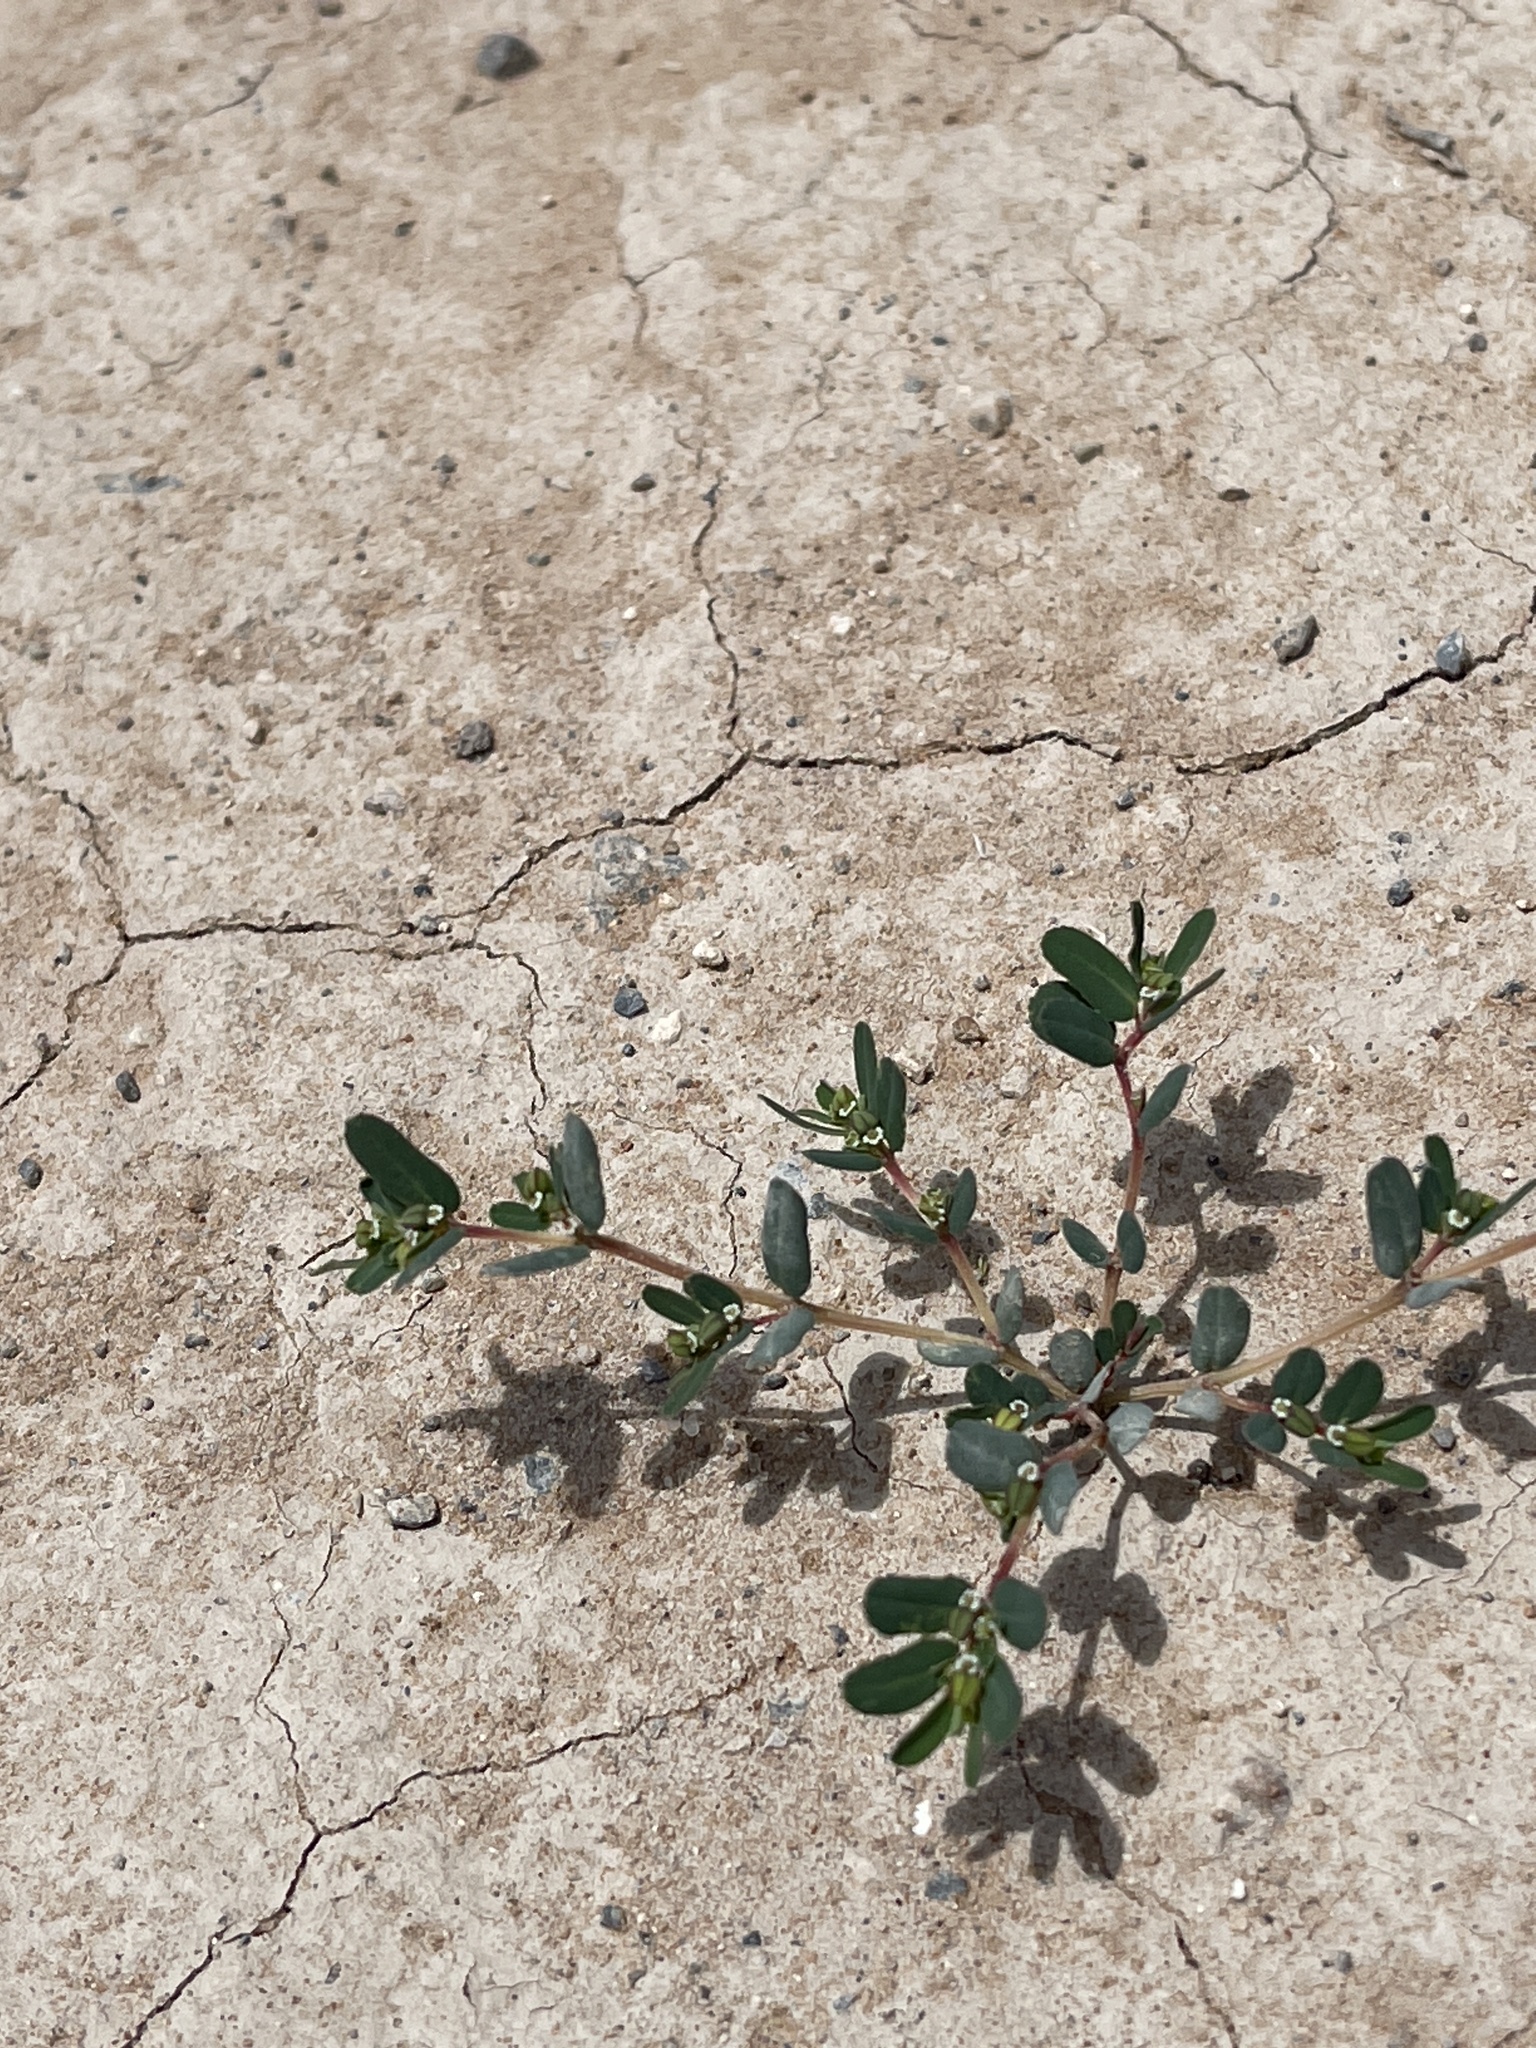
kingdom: Plantae
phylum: Tracheophyta
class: Magnoliopsida
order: Malpighiales
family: Euphorbiaceae
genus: Euphorbia
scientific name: Euphorbia serpillifolia
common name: Thyme-leaf spurge
